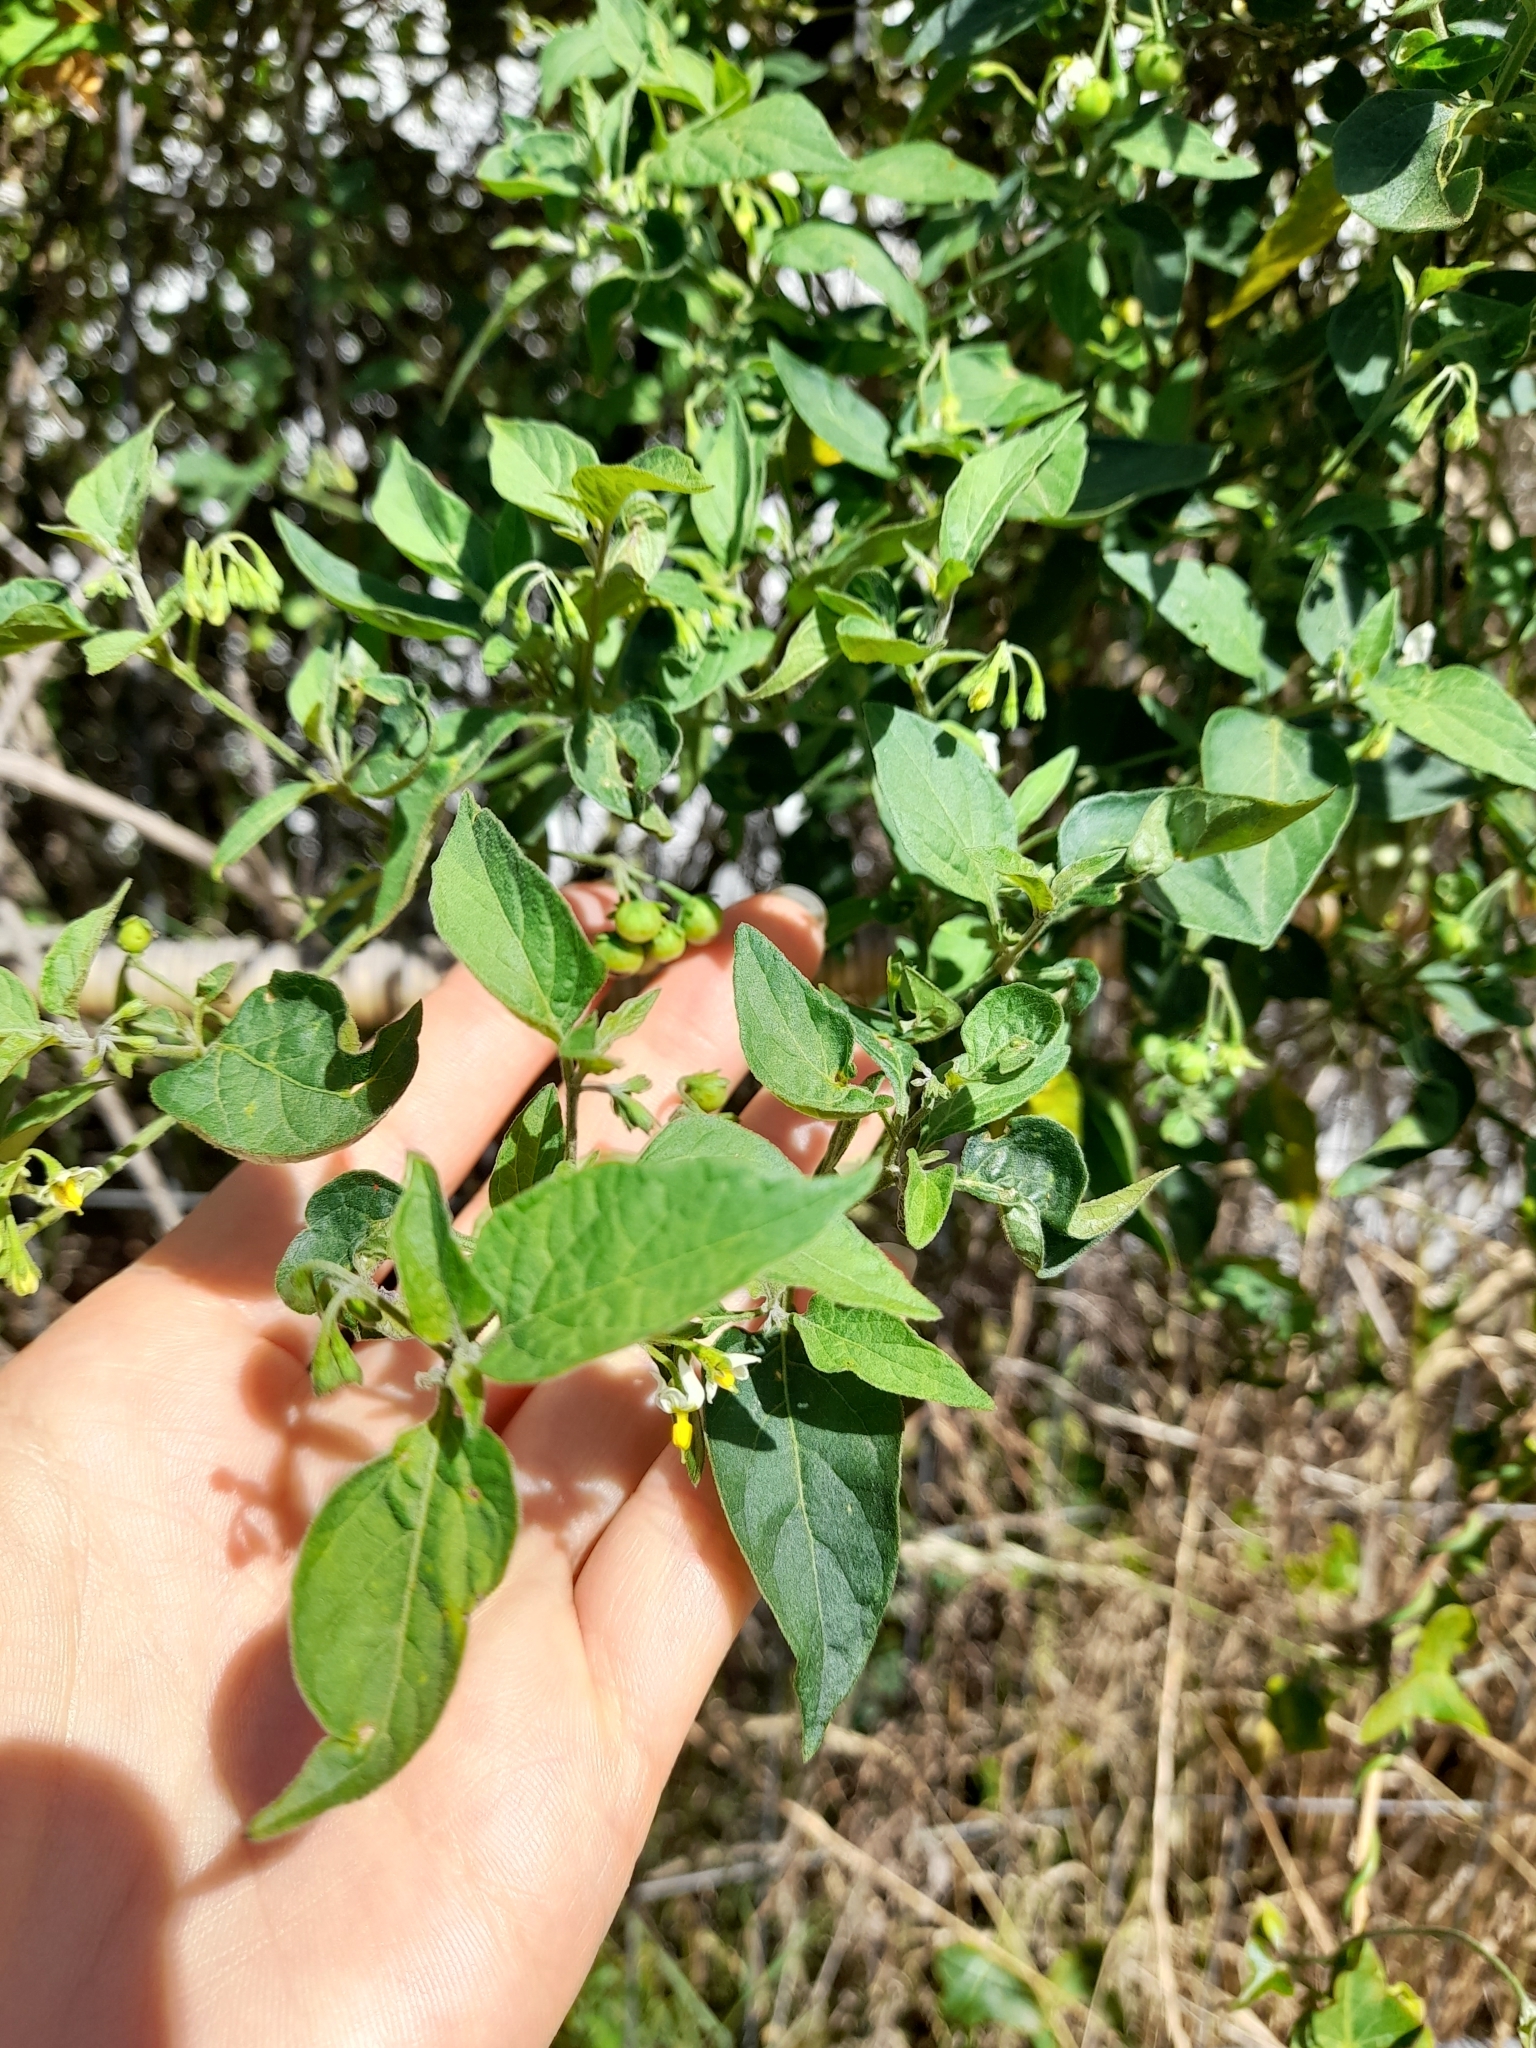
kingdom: Plantae
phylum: Tracheophyta
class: Magnoliopsida
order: Solanales
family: Solanaceae
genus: Solanum
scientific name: Solanum americanum
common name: American black nightshade
